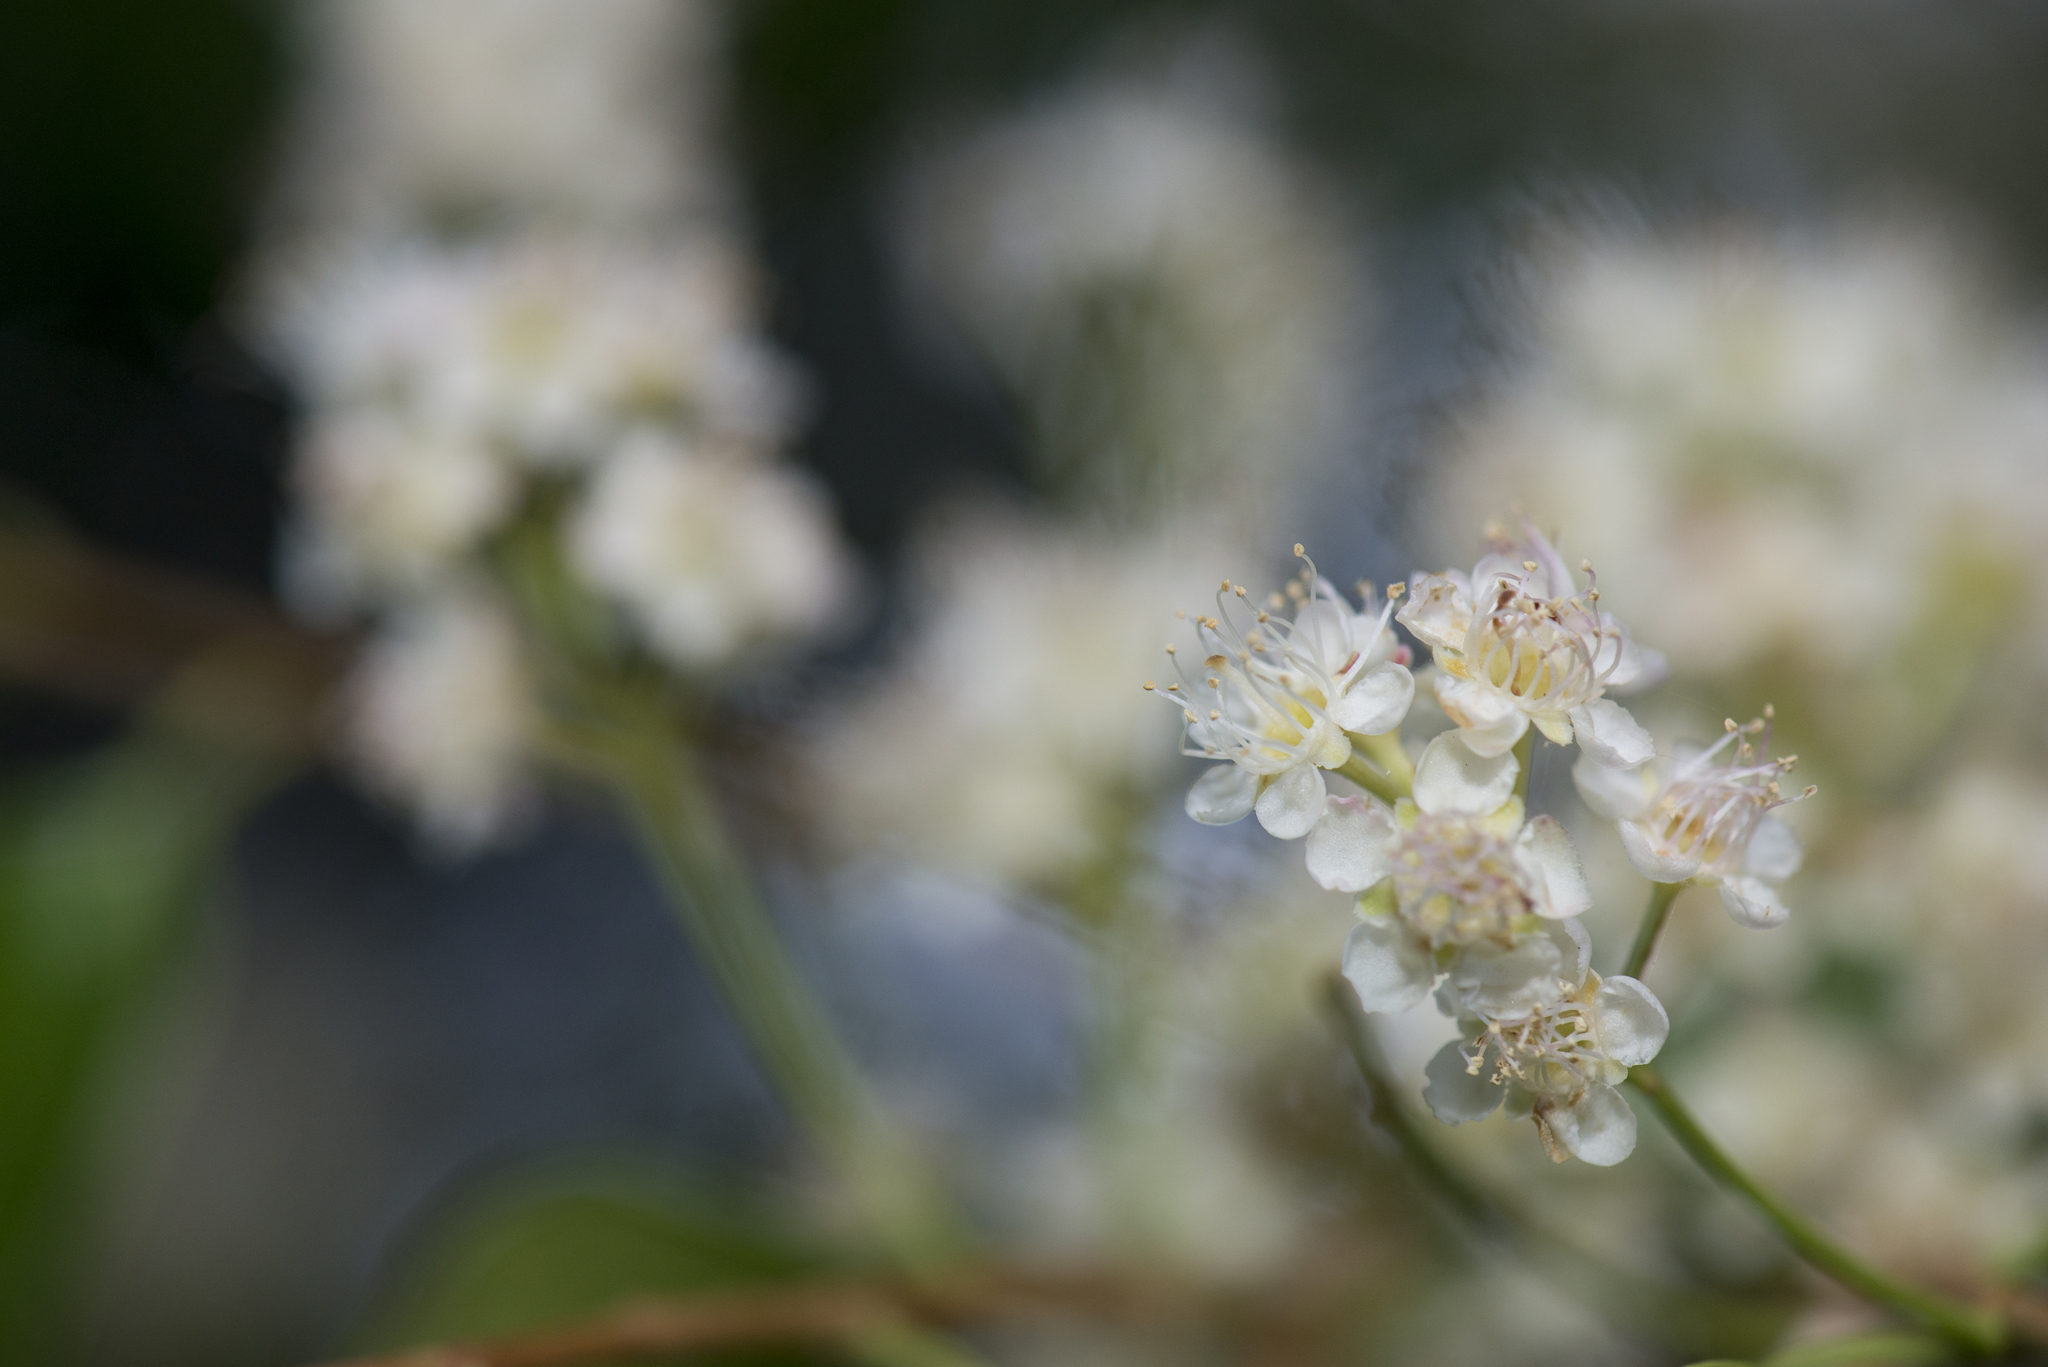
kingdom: Plantae
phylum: Tracheophyta
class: Magnoliopsida
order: Rosales
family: Rosaceae
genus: Prunus
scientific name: Prunus phaeosticta
